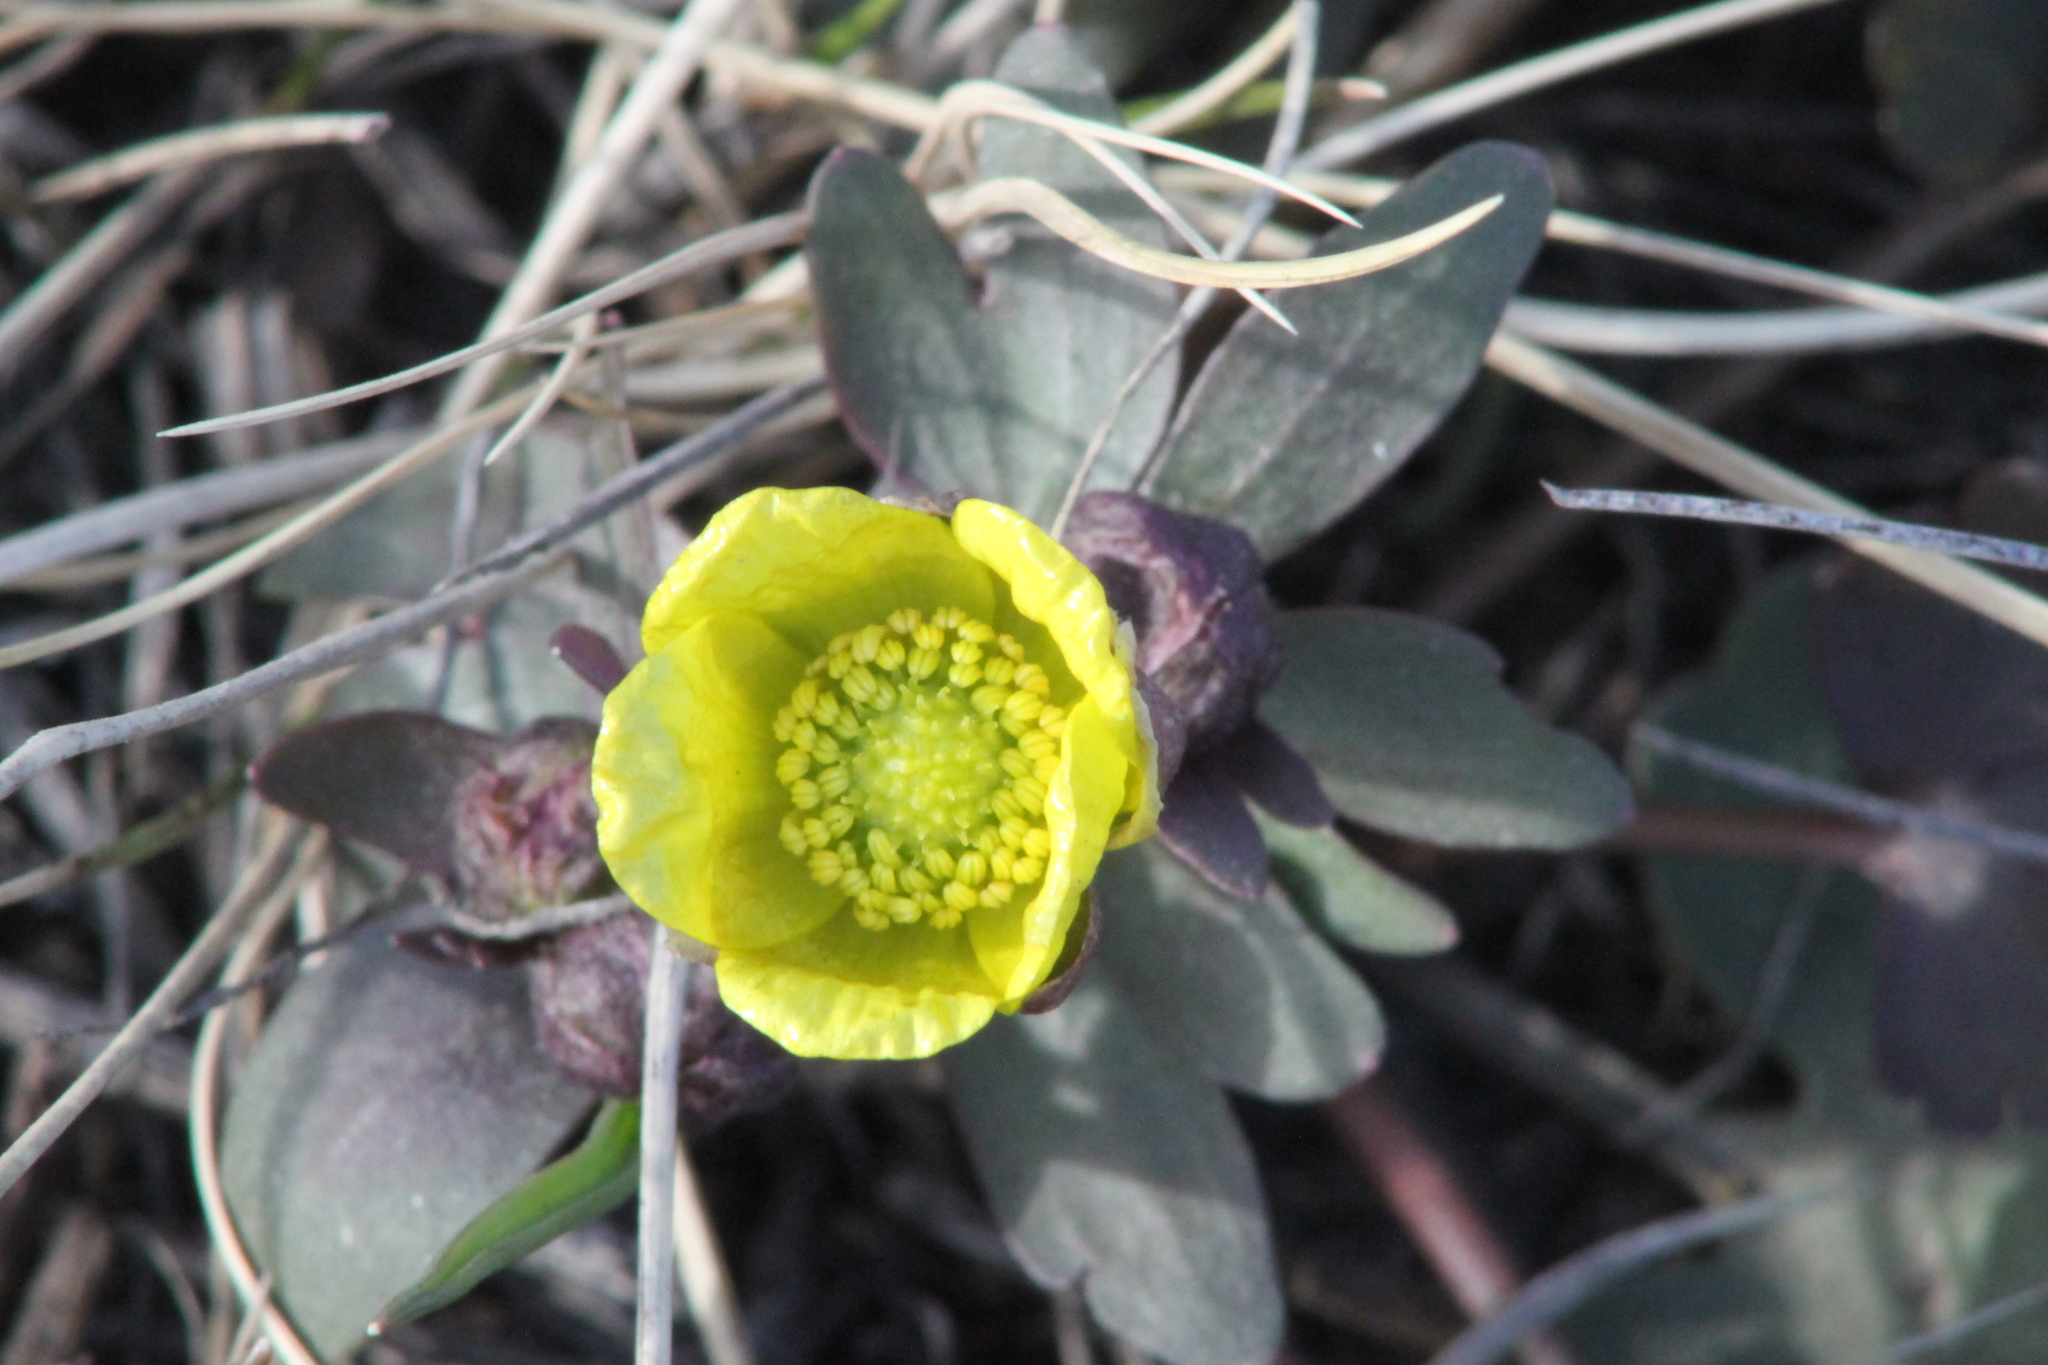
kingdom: Plantae
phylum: Tracheophyta
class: Magnoliopsida
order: Ranunculales
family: Ranunculaceae
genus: Ranunculus
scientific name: Ranunculus polyrhizos
